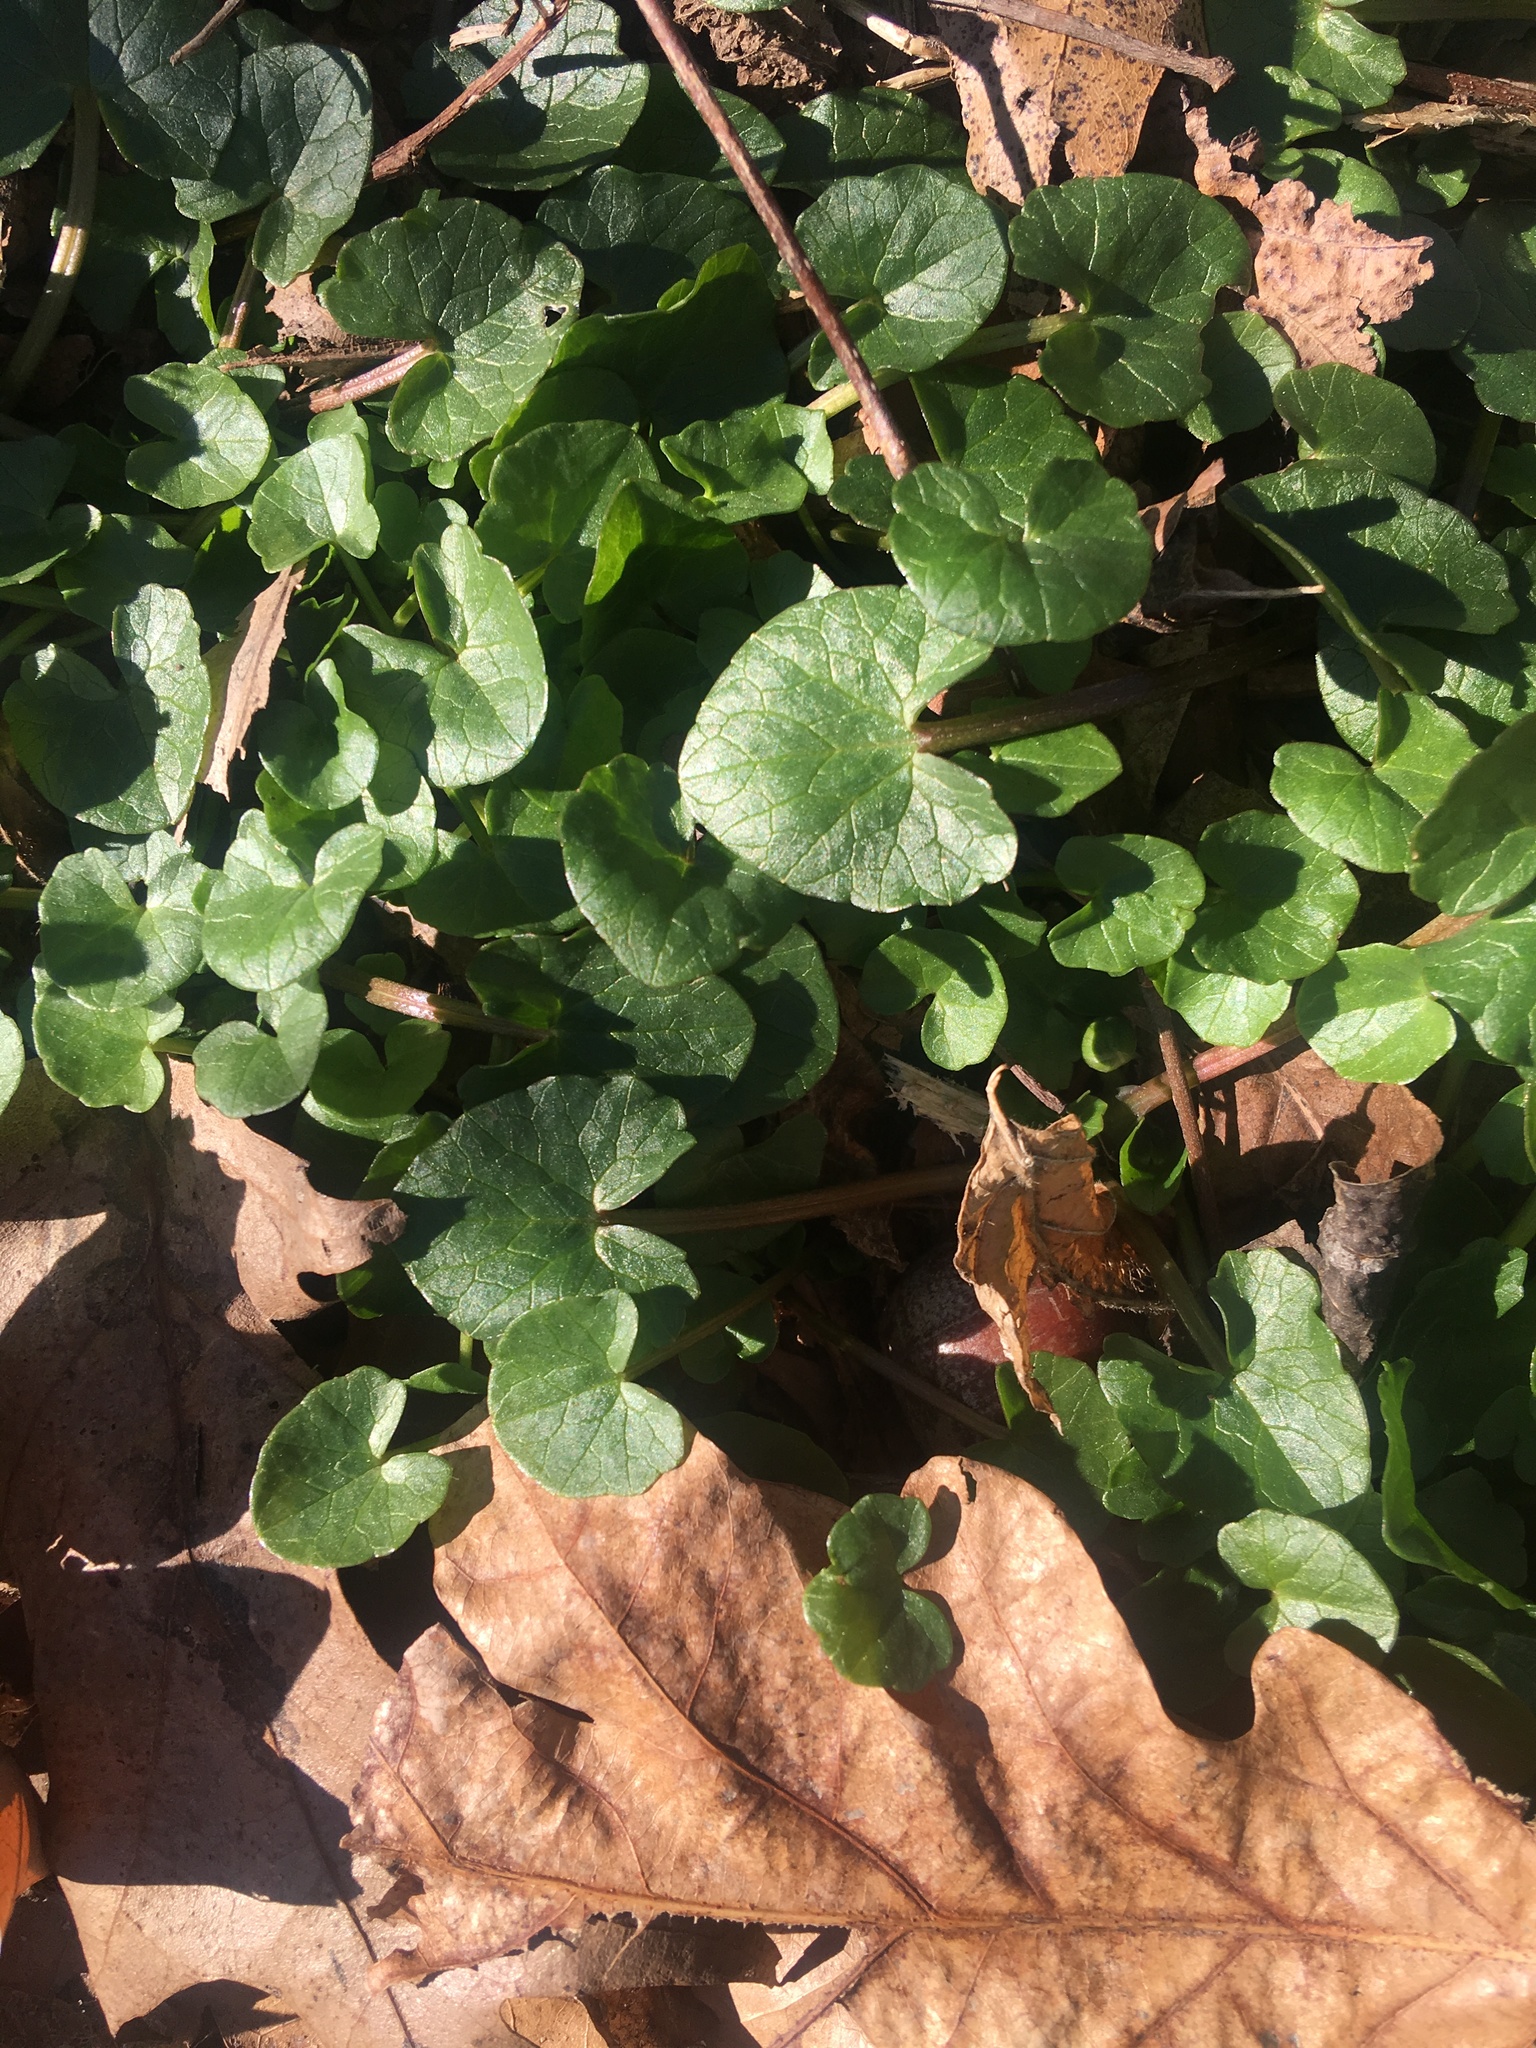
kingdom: Plantae
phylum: Tracheophyta
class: Magnoliopsida
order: Ranunculales
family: Ranunculaceae
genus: Ficaria
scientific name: Ficaria verna
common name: Lesser celandine
